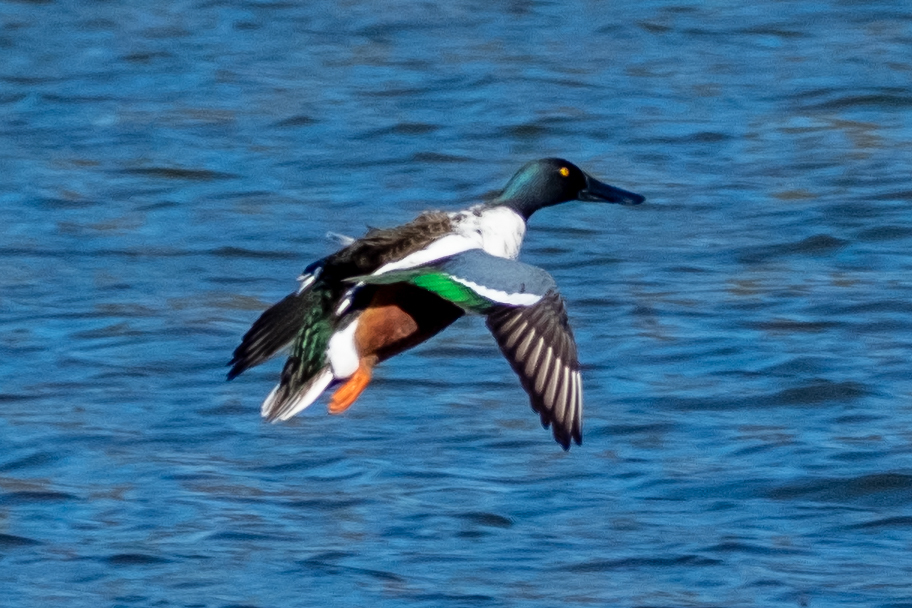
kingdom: Animalia
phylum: Chordata
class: Aves
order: Anseriformes
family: Anatidae
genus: Spatula
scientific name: Spatula clypeata
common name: Northern shoveler
